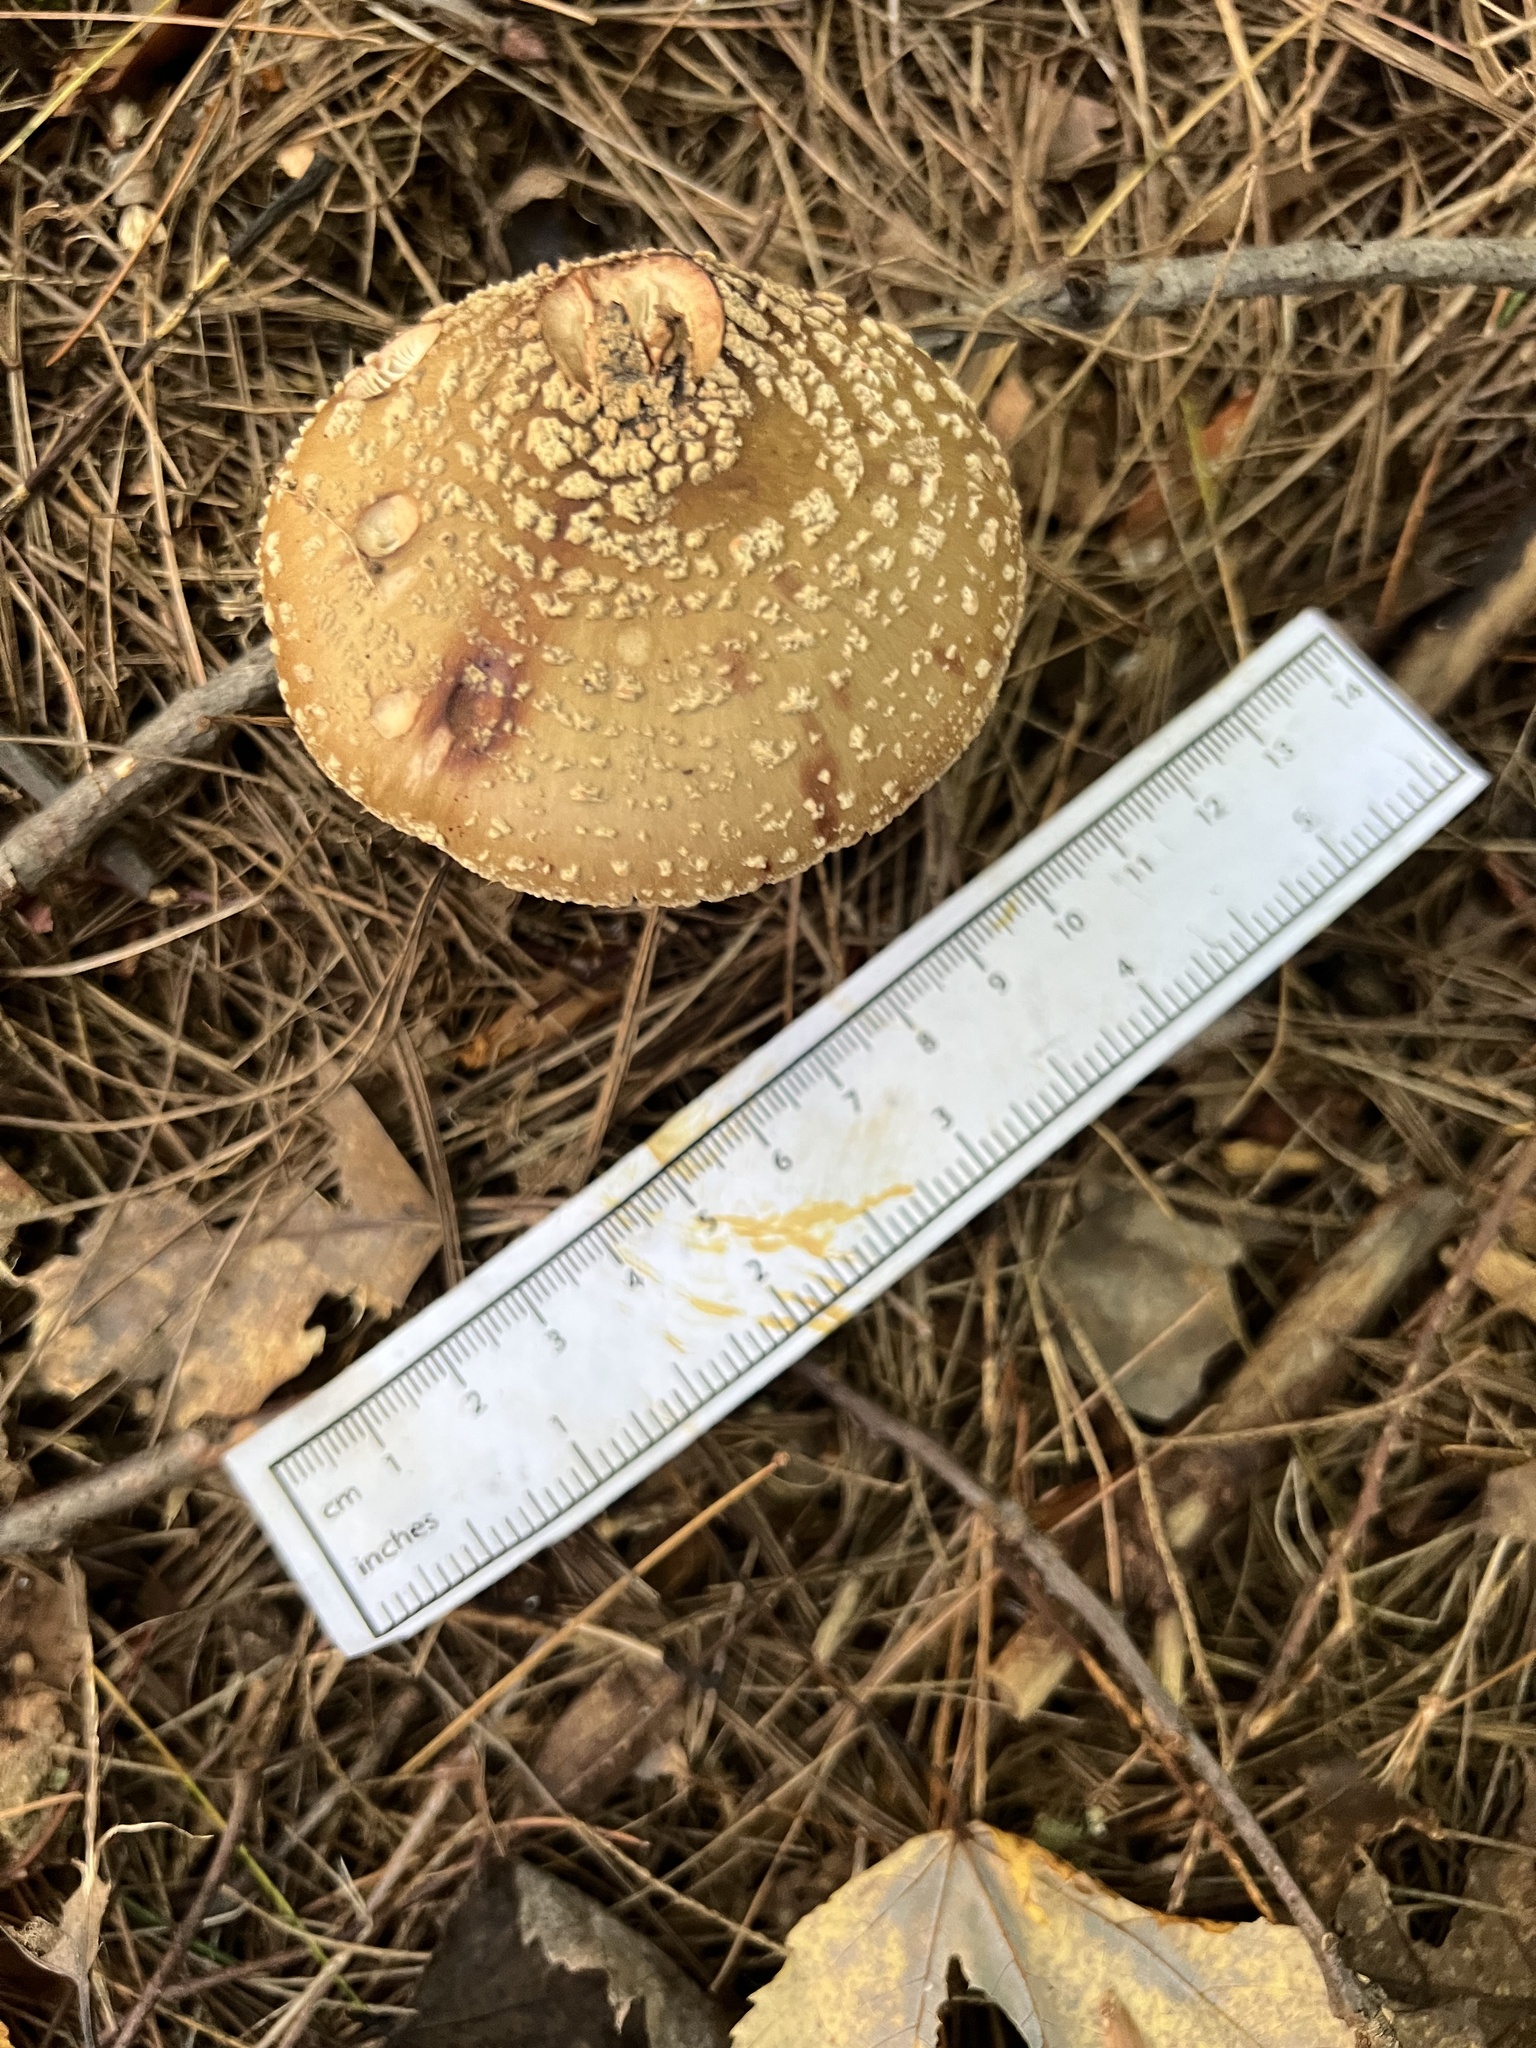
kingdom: Fungi
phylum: Basidiomycota
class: Agaricomycetes
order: Agaricales
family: Amanitaceae
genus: Amanita
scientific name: Amanita rubescens
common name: Blusher
